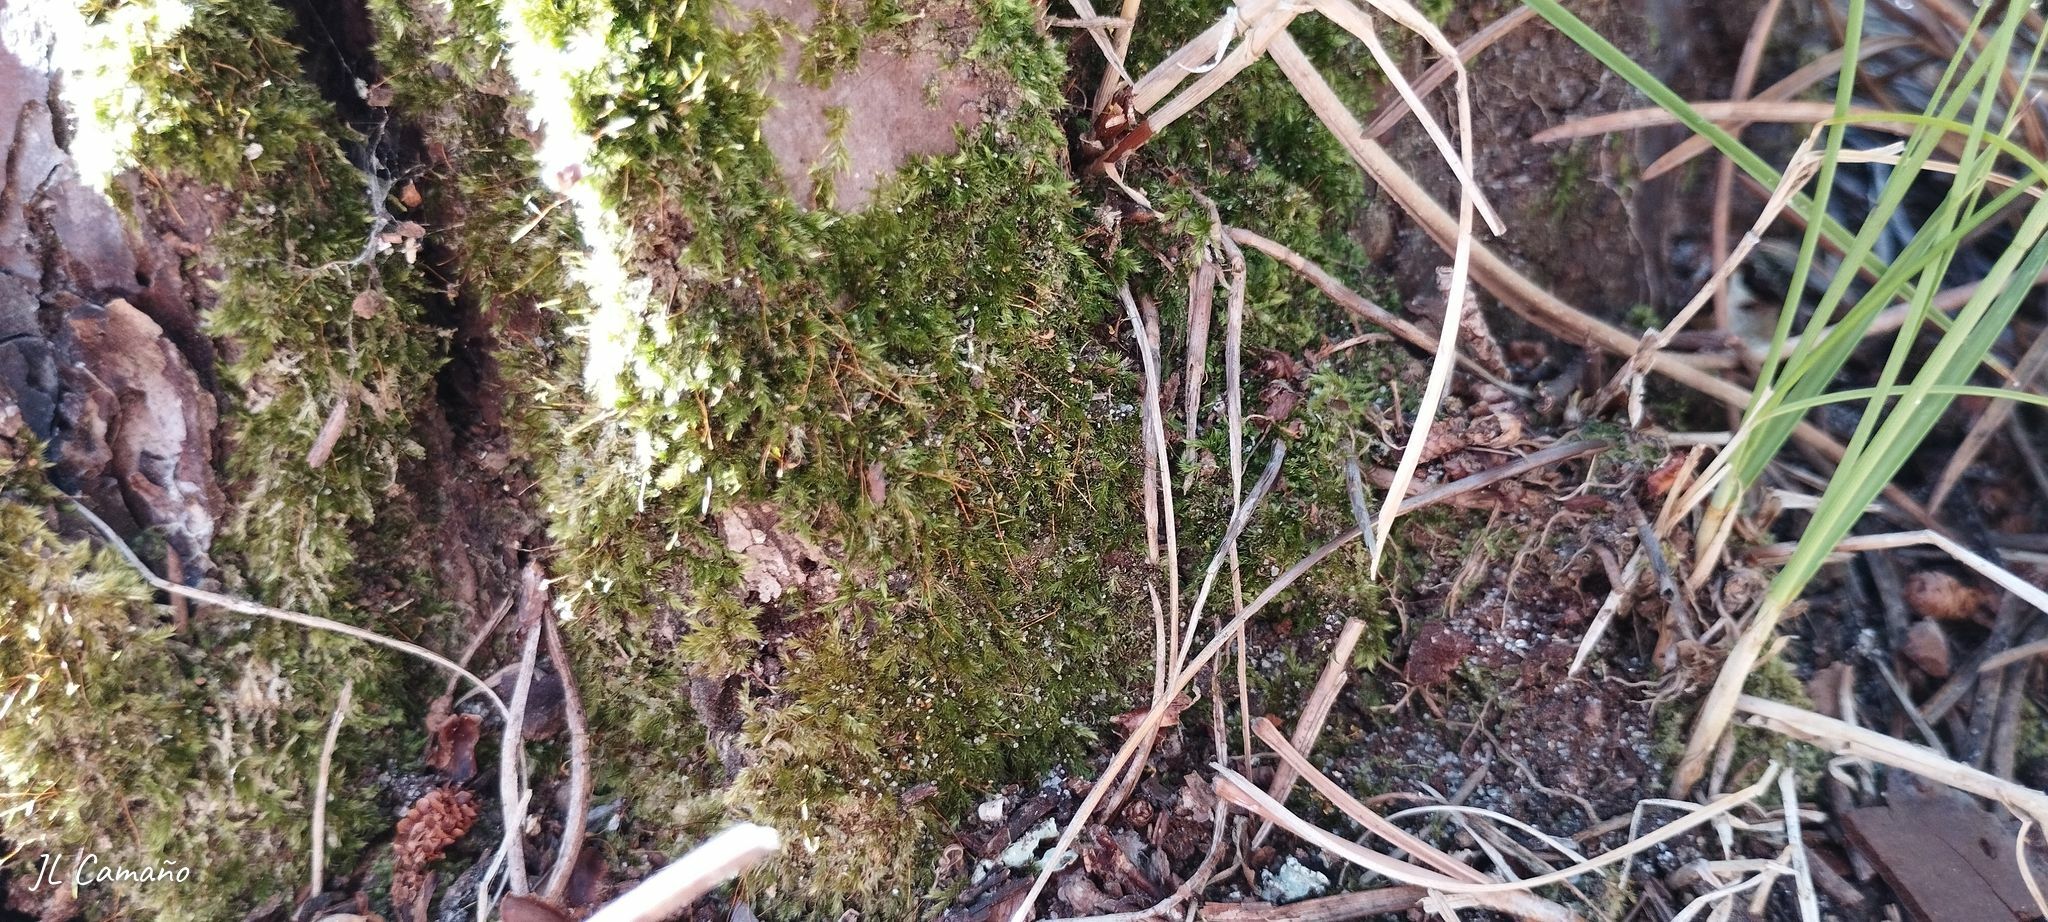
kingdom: Plantae
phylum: Bryophyta
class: Bryopsida
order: Hypnales
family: Sematophyllaceae
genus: Sematophyllum
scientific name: Sematophyllum substrumulosum
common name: Bark signal-moss
